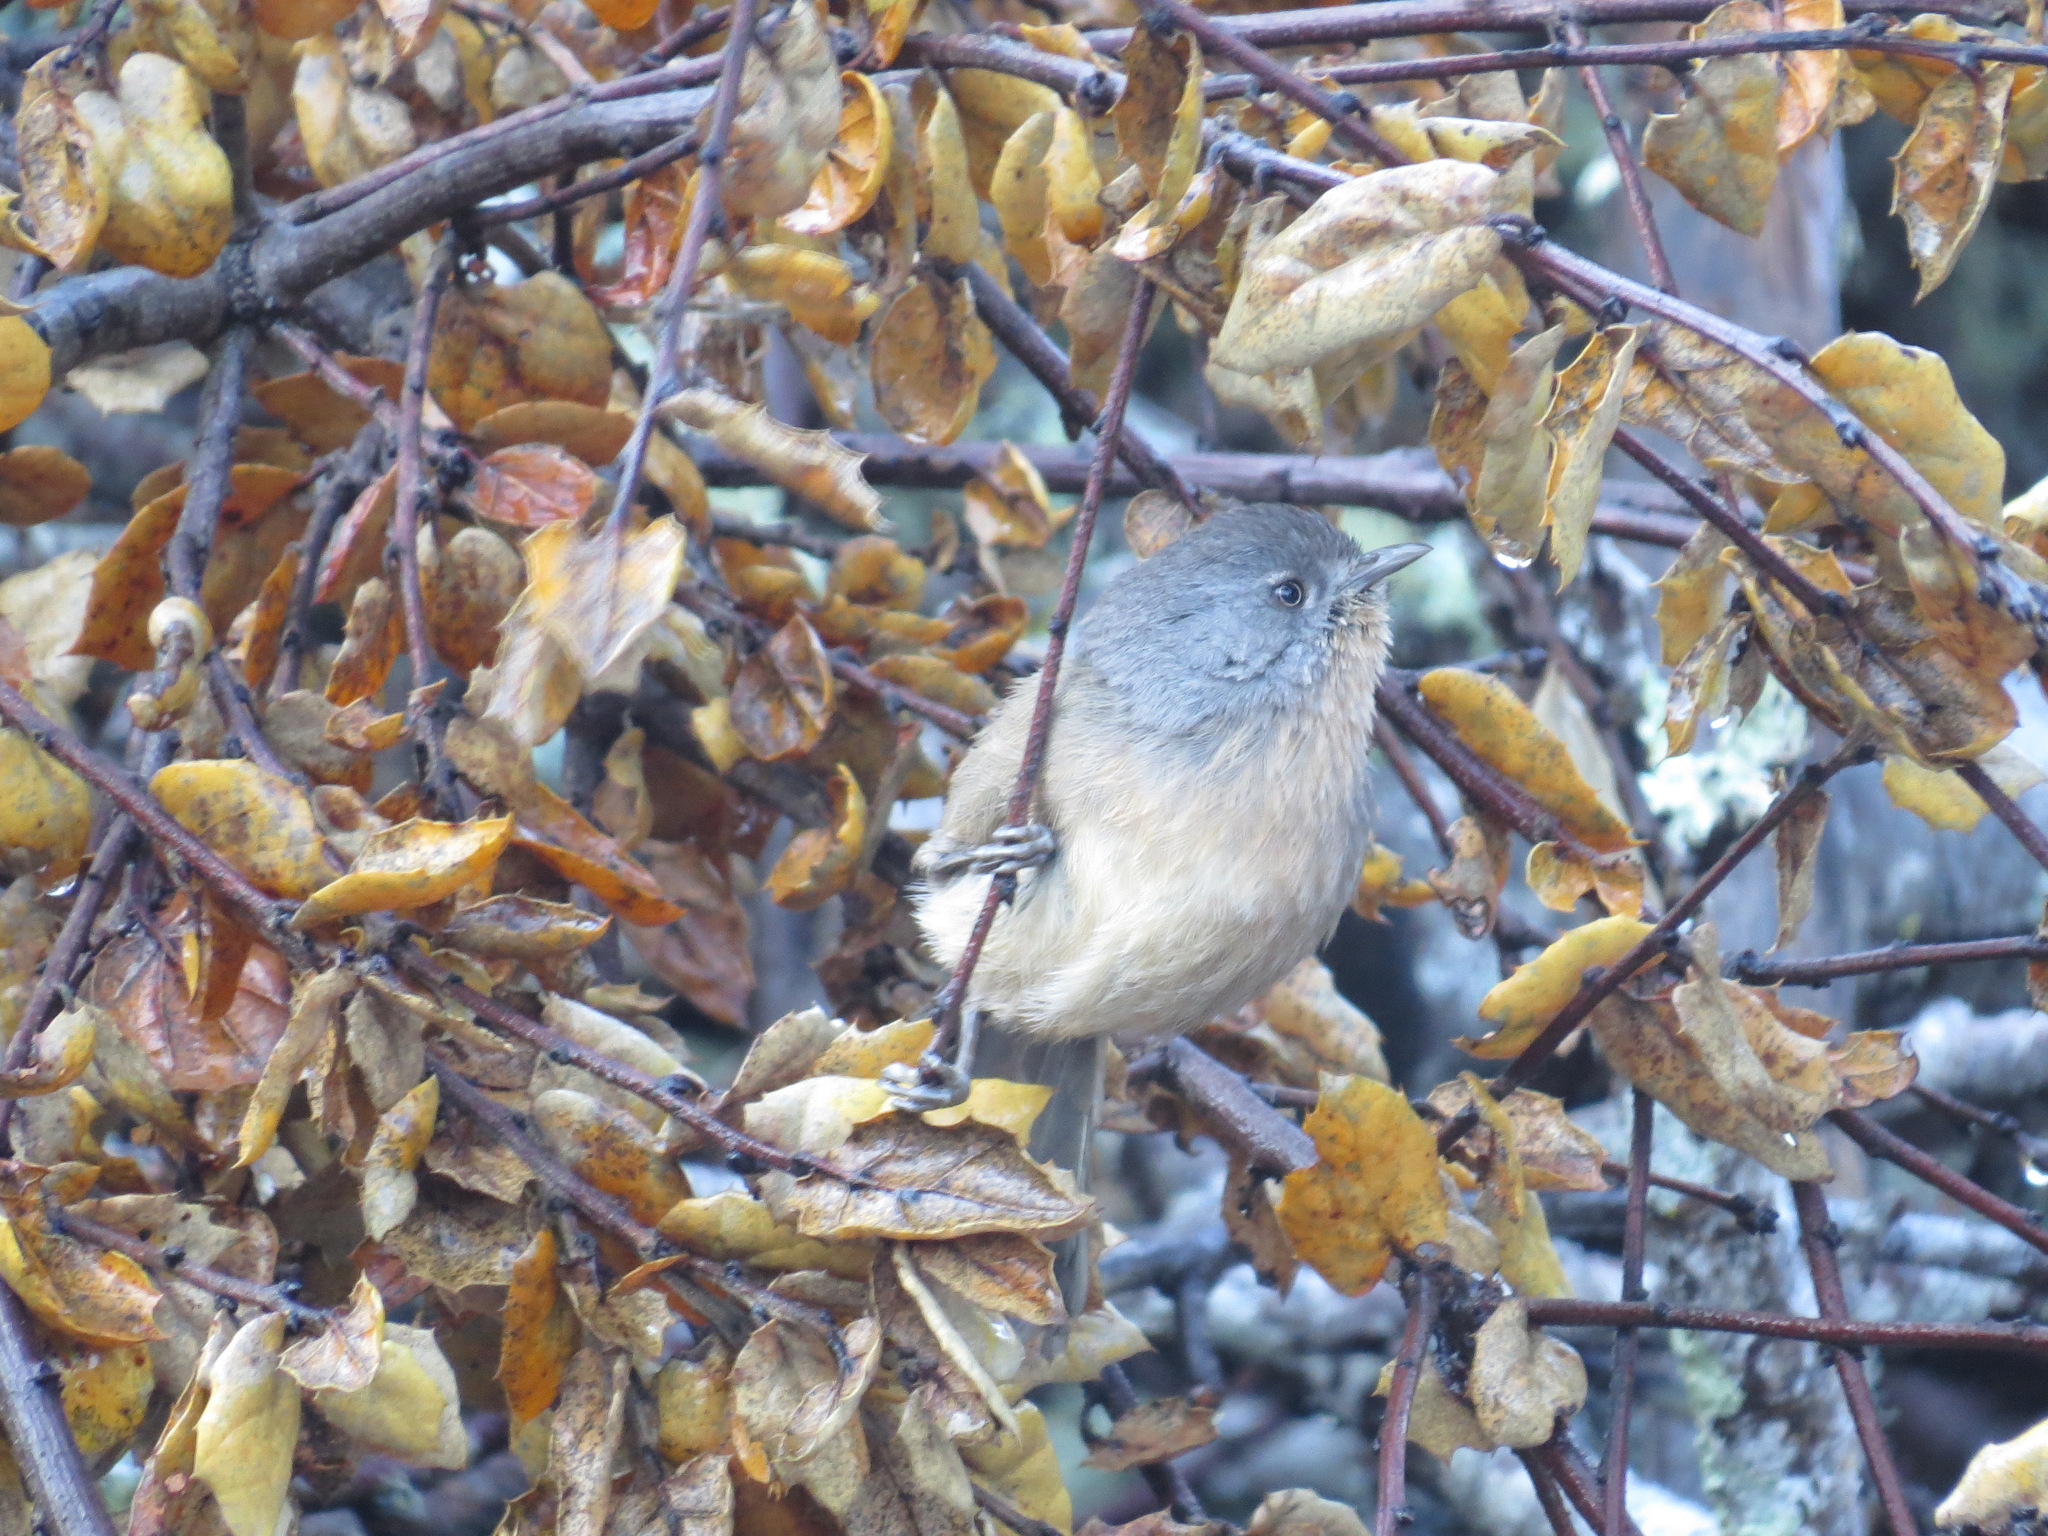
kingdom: Animalia
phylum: Chordata
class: Aves
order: Passeriformes
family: Sylviidae
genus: Chamaea
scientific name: Chamaea fasciata
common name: Wrentit
